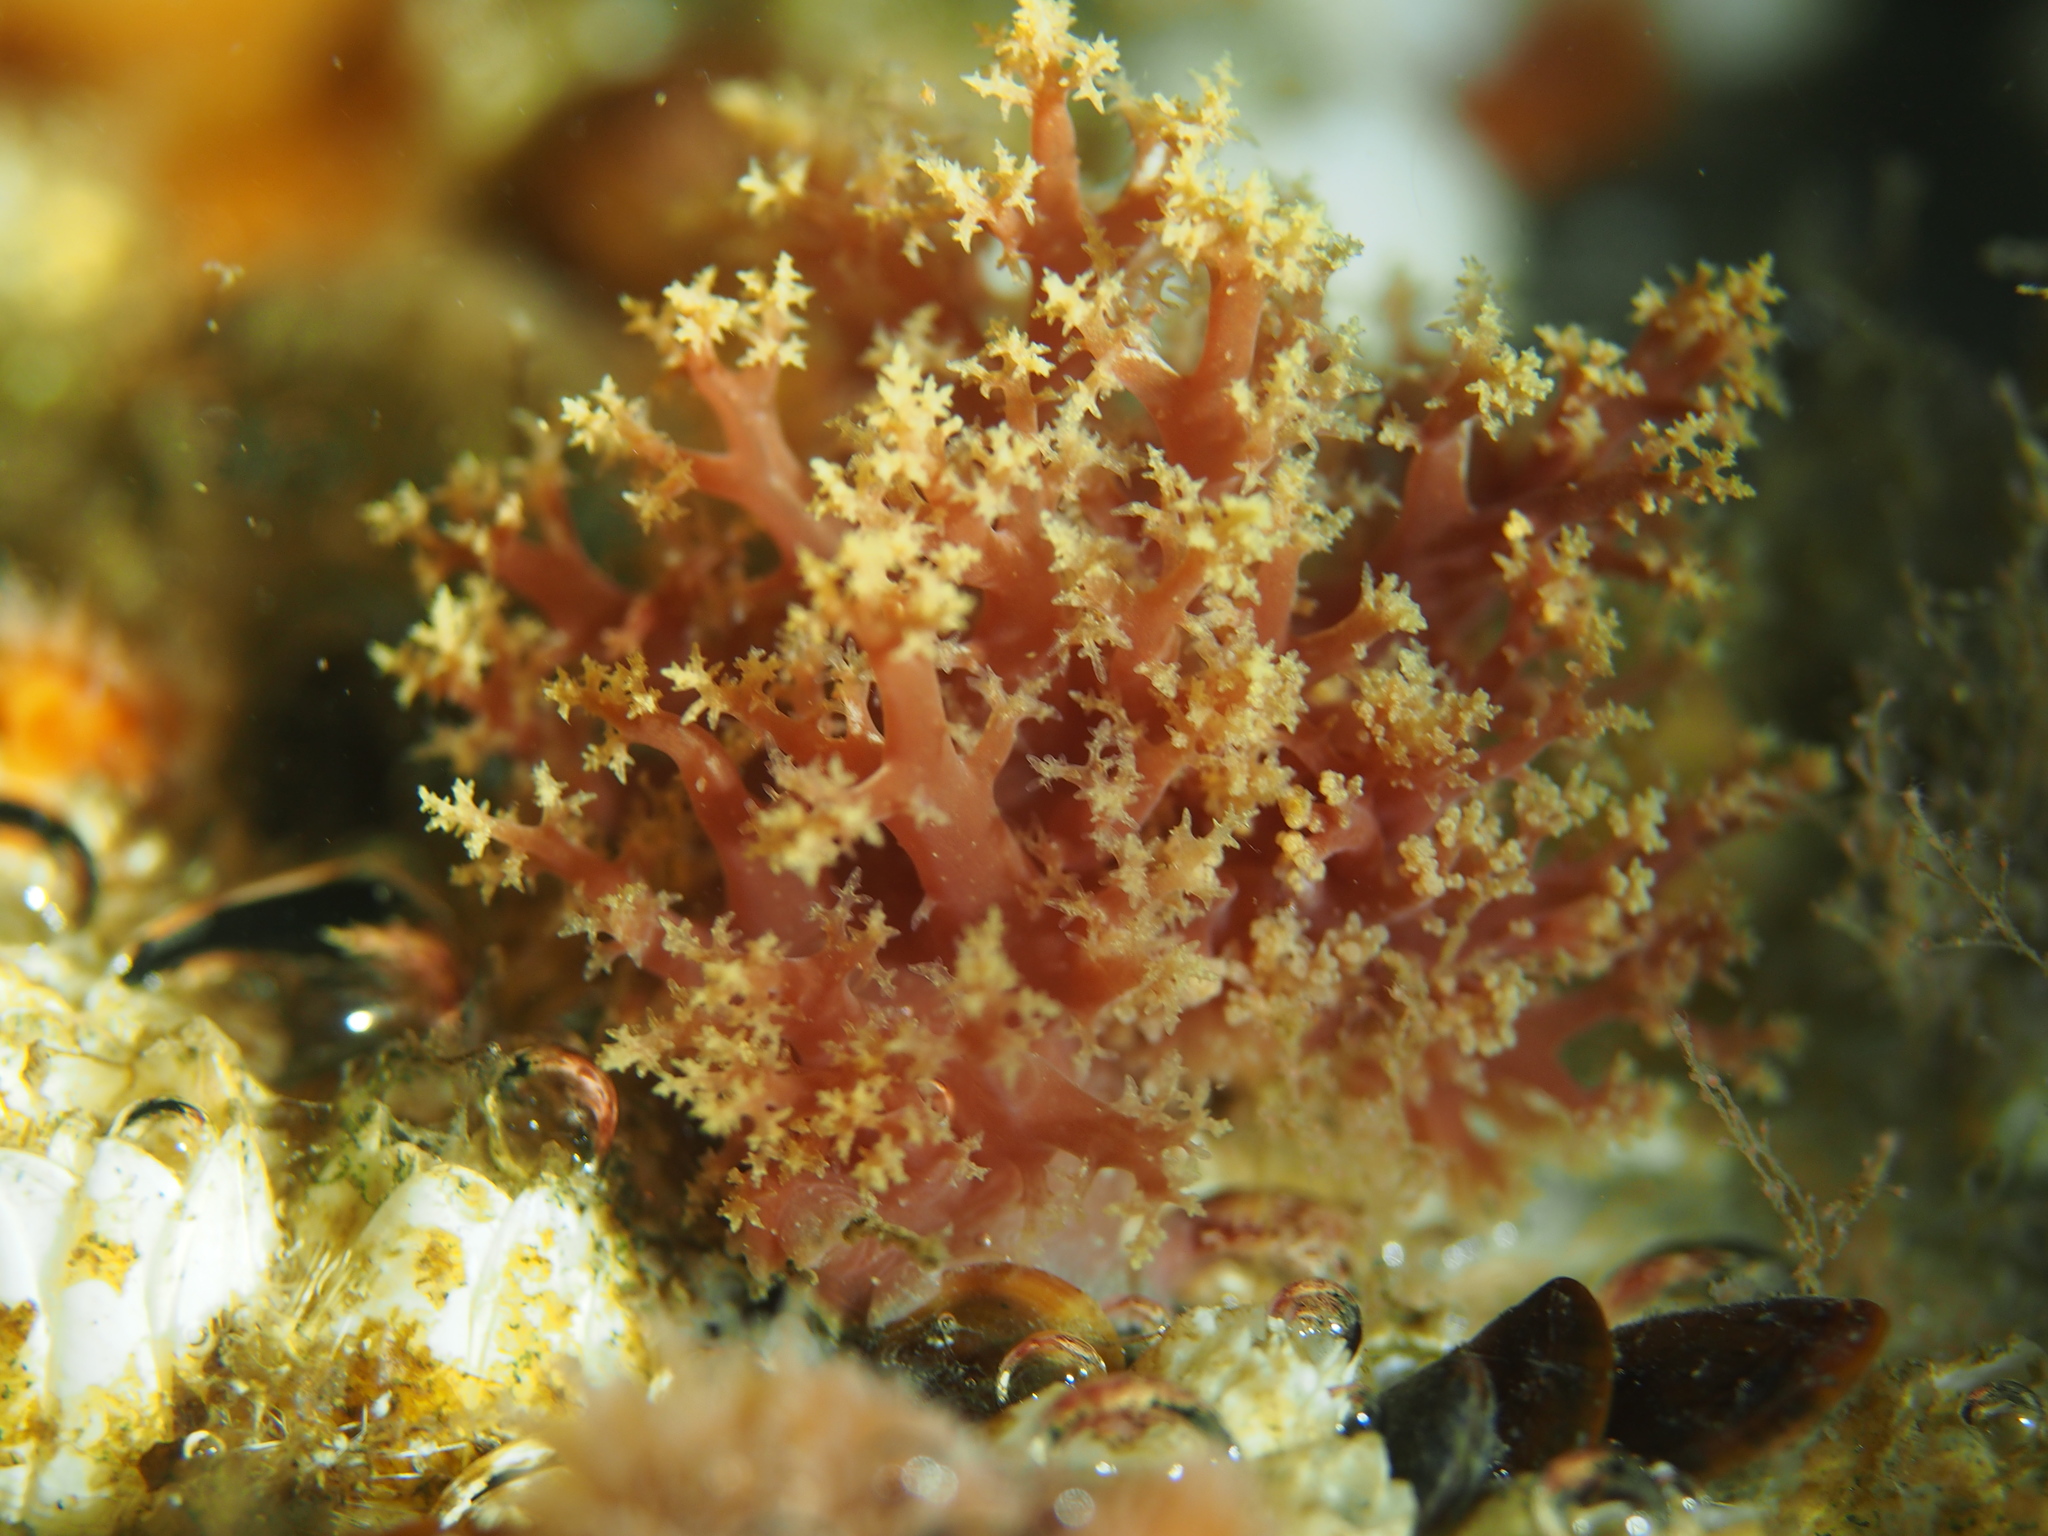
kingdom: Animalia
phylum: Mollusca
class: Gastropoda
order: Nudibranchia
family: Dendronotidae
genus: Dendronotus
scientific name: Dendronotus lacteus
